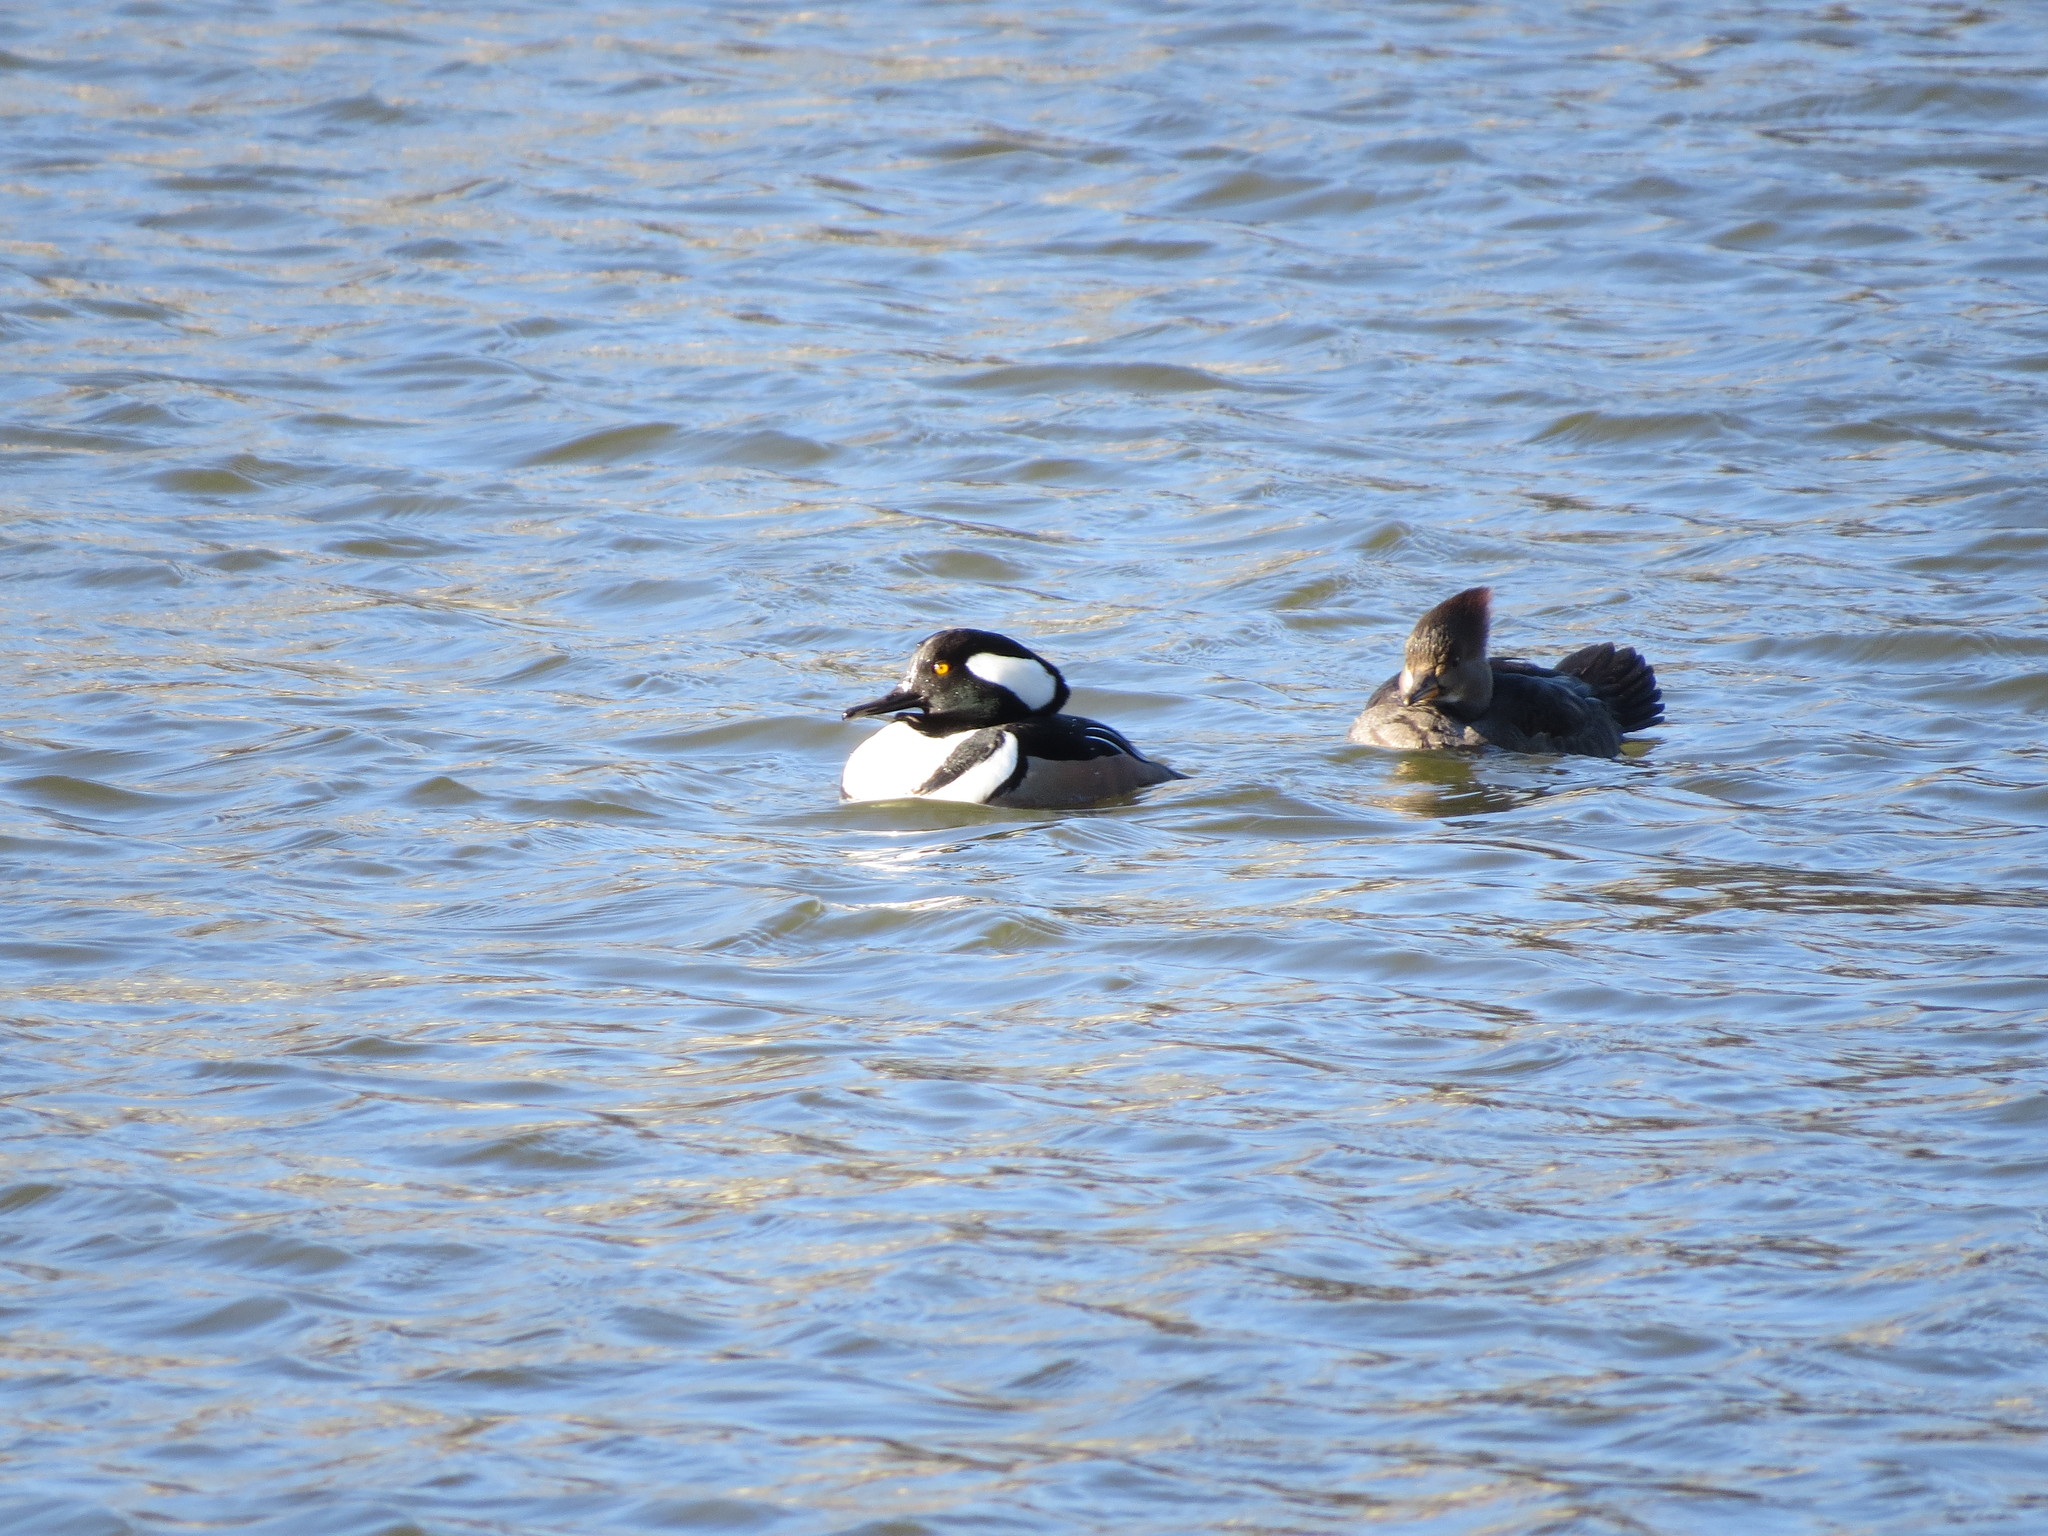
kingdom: Animalia
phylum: Chordata
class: Aves
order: Anseriformes
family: Anatidae
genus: Lophodytes
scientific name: Lophodytes cucullatus
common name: Hooded merganser
